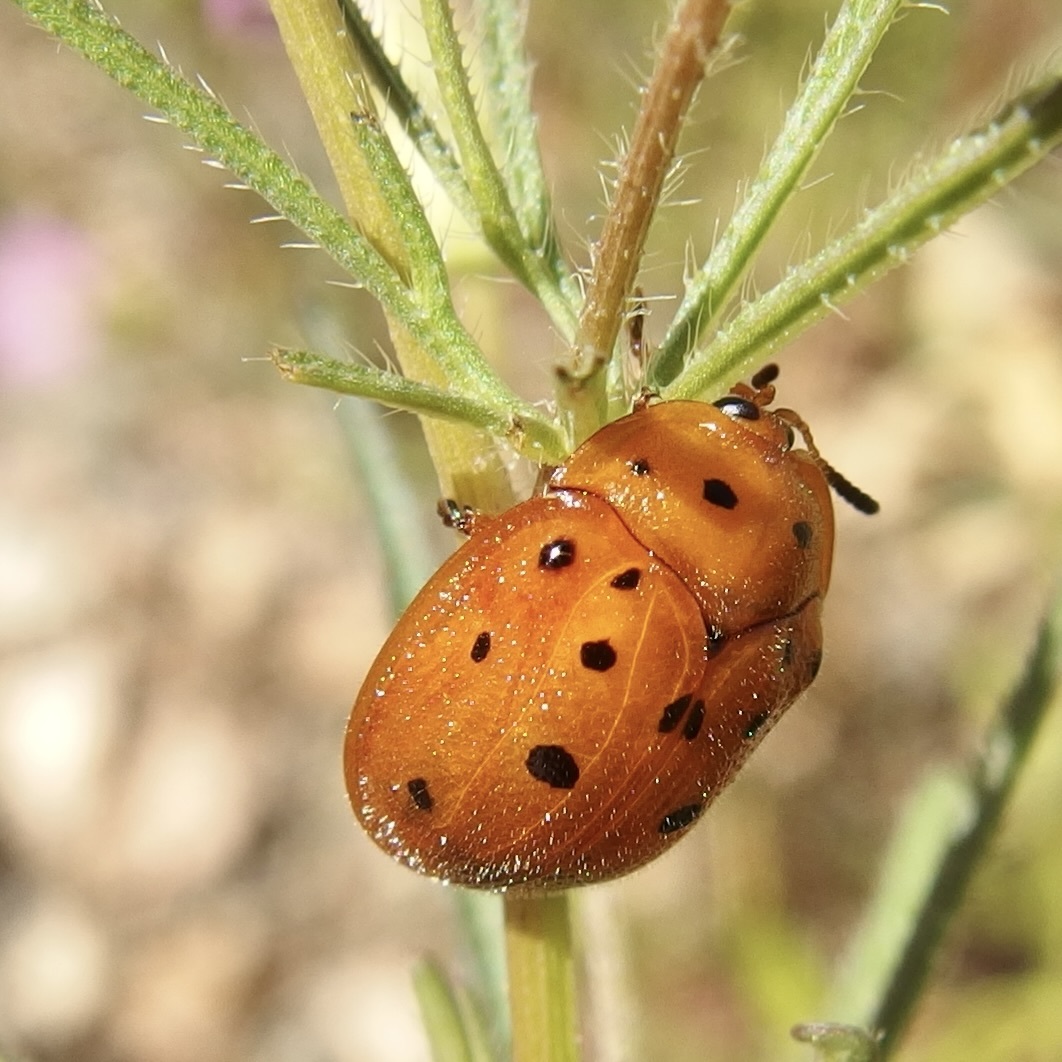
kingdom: Animalia
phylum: Arthropoda
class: Insecta
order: Coleoptera
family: Chrysomelidae
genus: Chelymorpha
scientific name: Chelymorpha phytophagica
